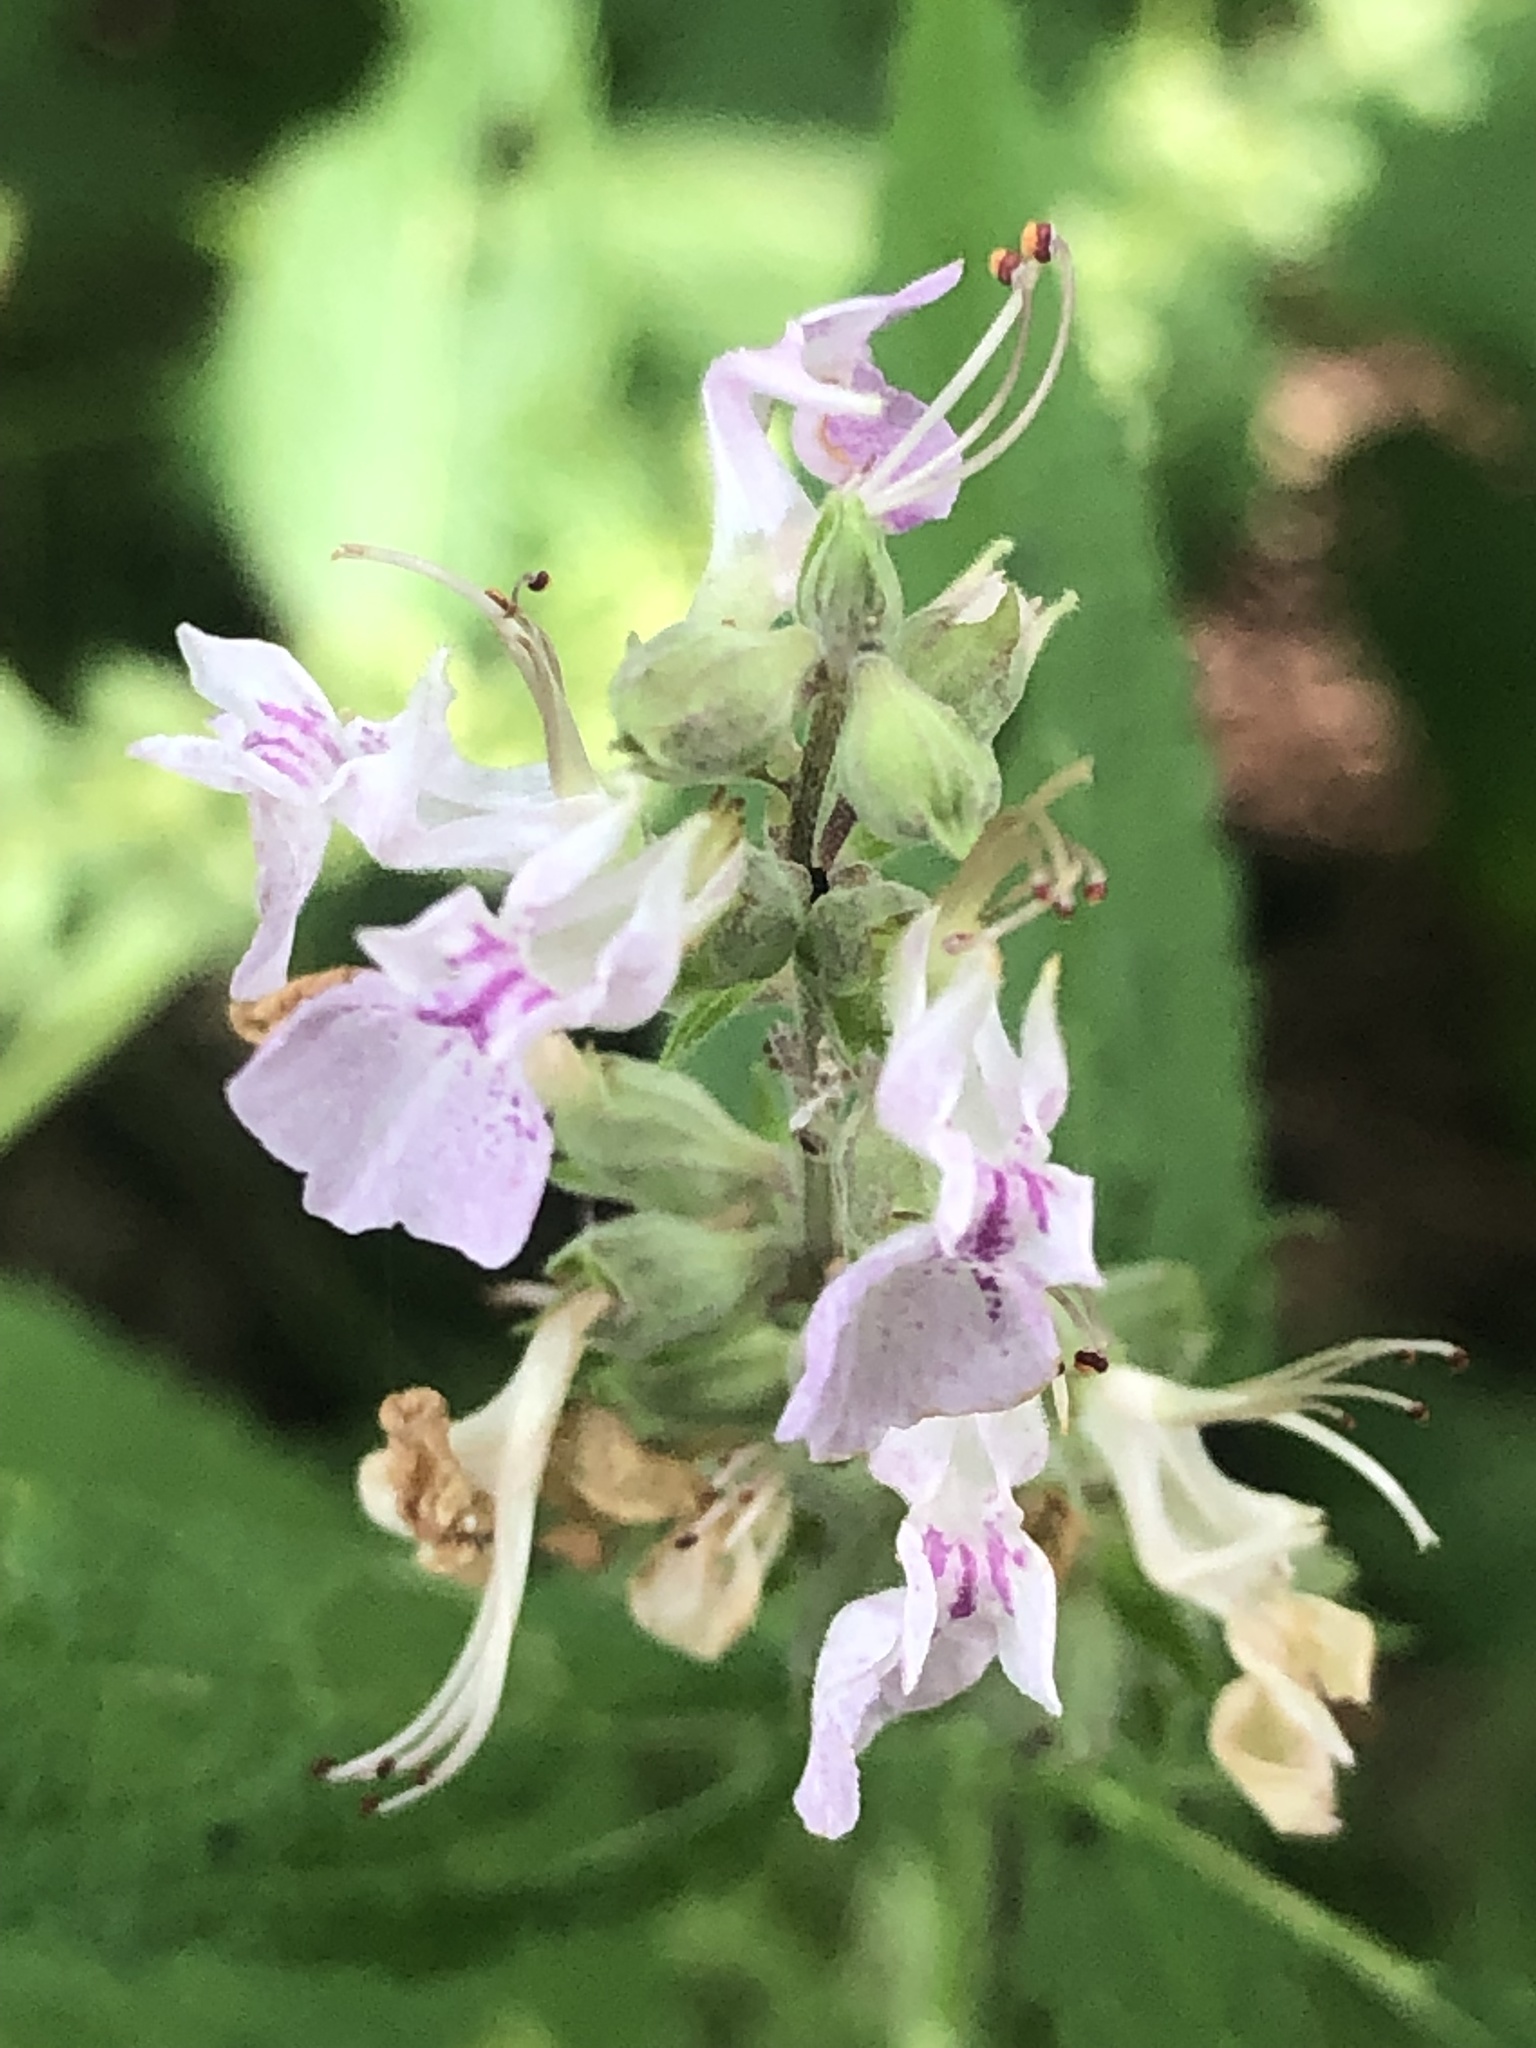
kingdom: Plantae
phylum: Tracheophyta
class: Magnoliopsida
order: Lamiales
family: Lamiaceae
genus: Teucrium
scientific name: Teucrium canadense
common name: American germander
